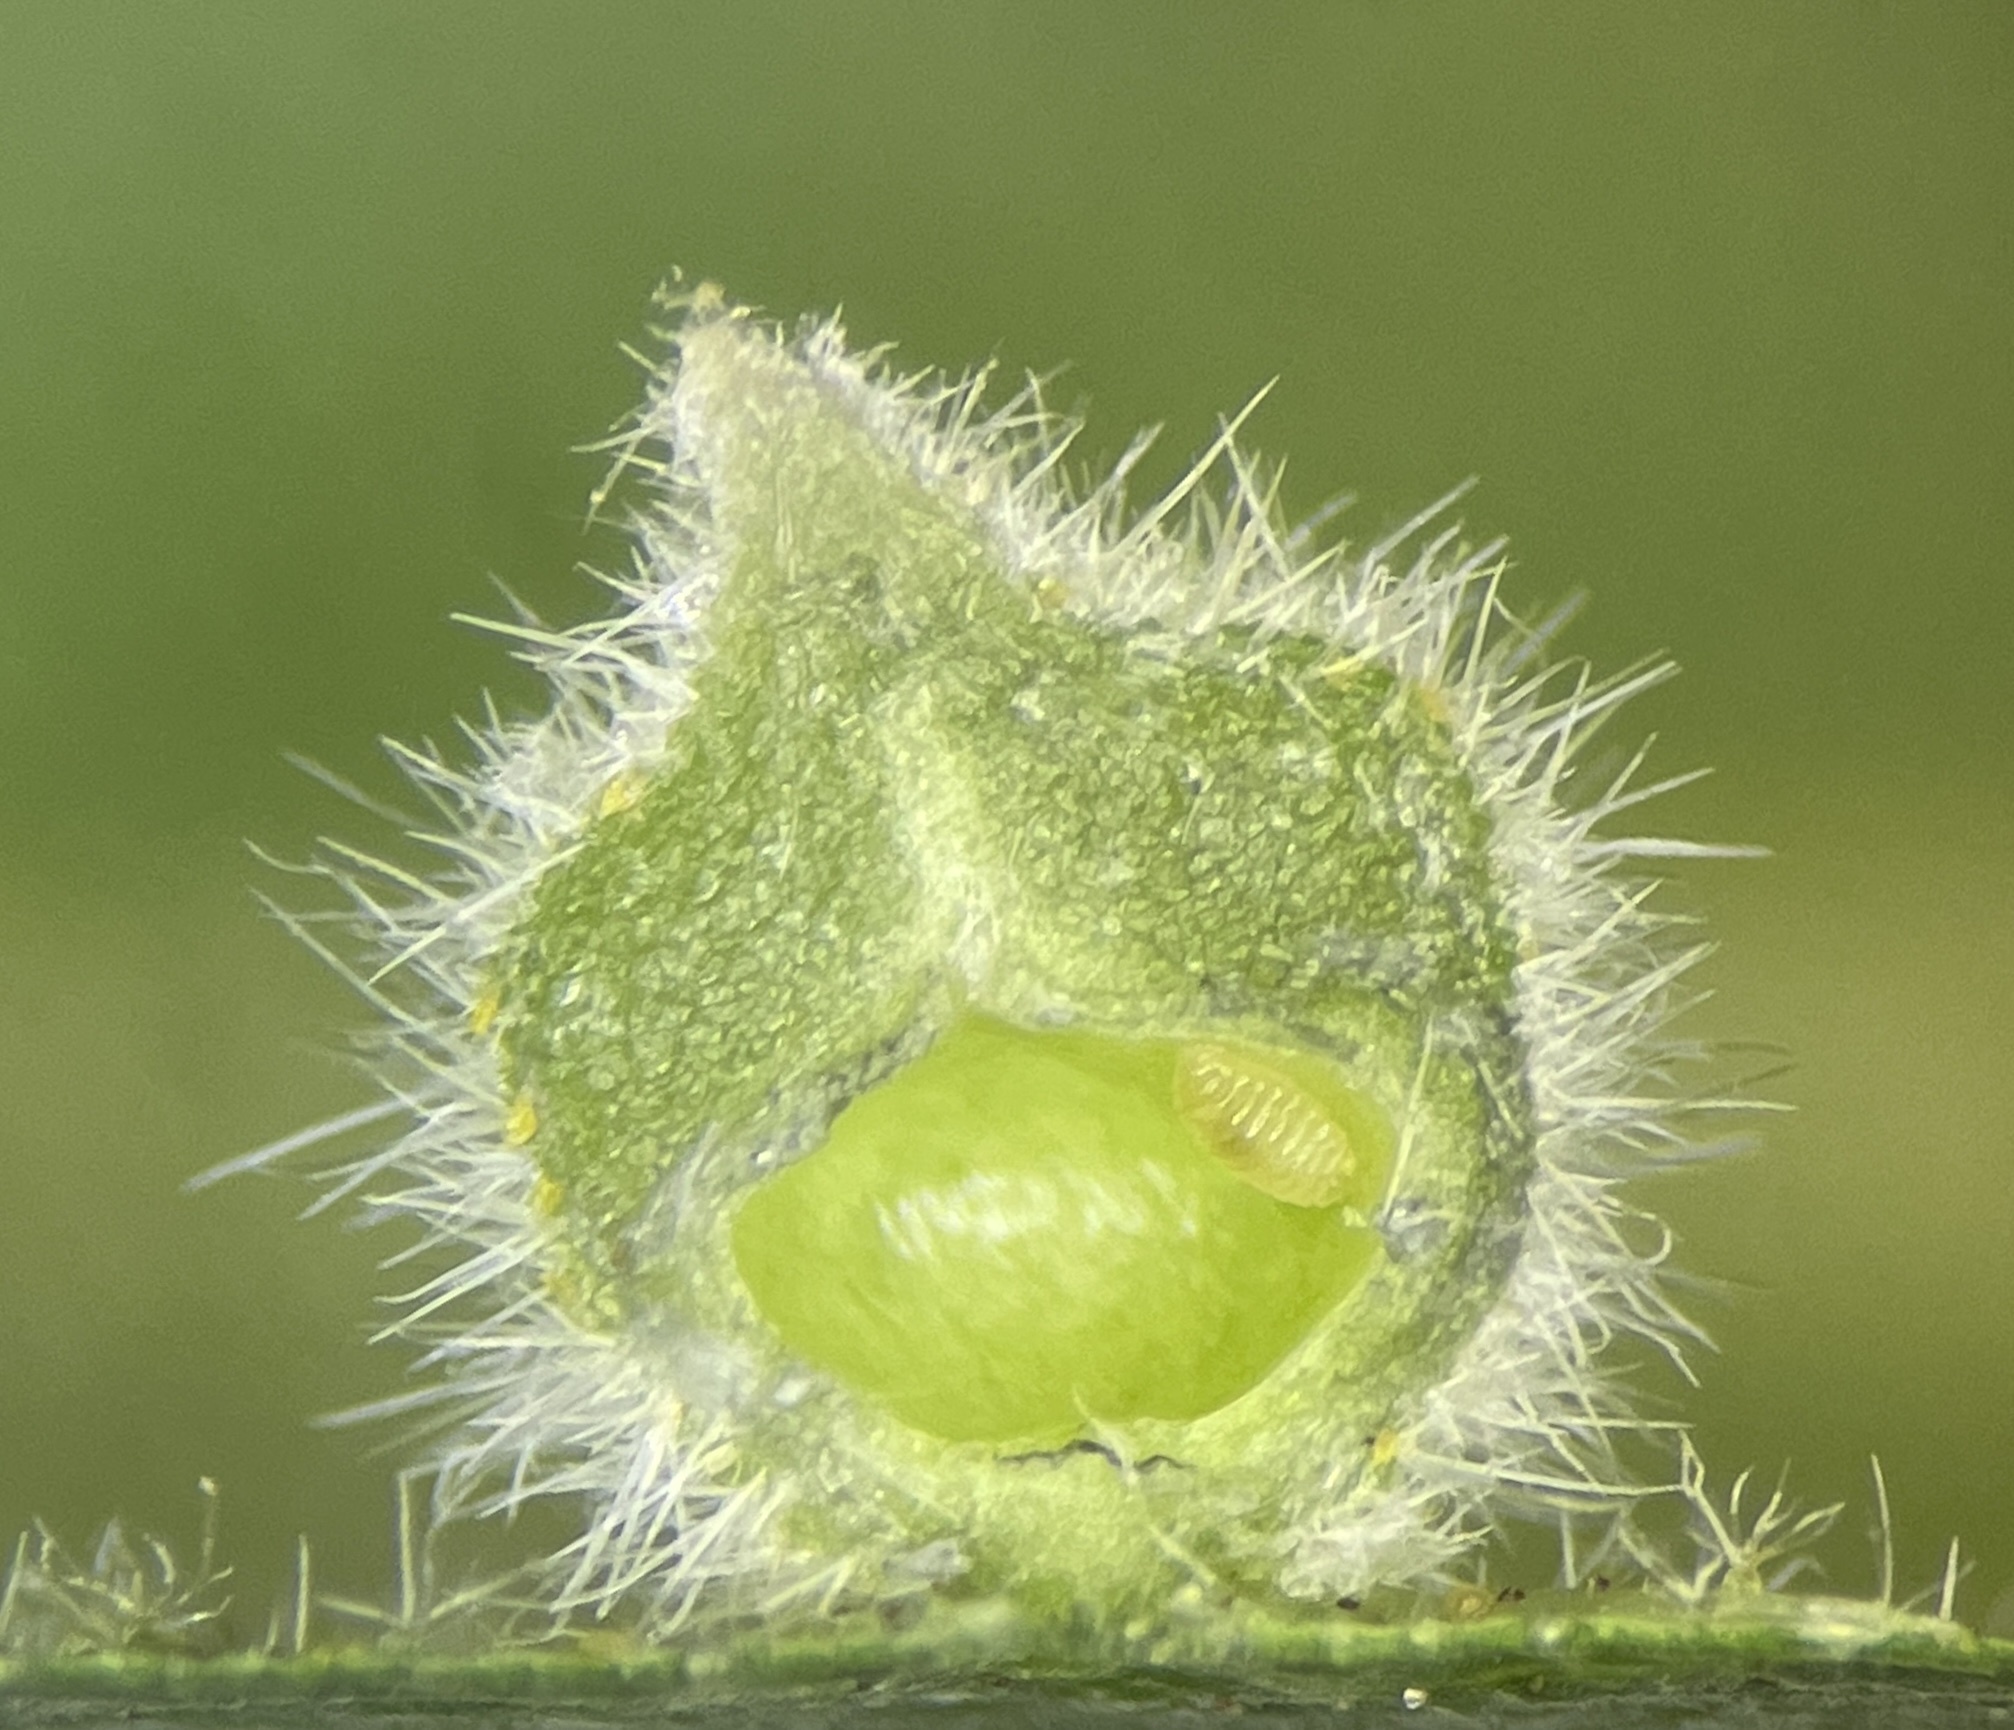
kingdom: Animalia
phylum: Arthropoda
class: Insecta
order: Diptera
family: Cecidomyiidae
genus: Caryomyia
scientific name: Caryomyia echinata
